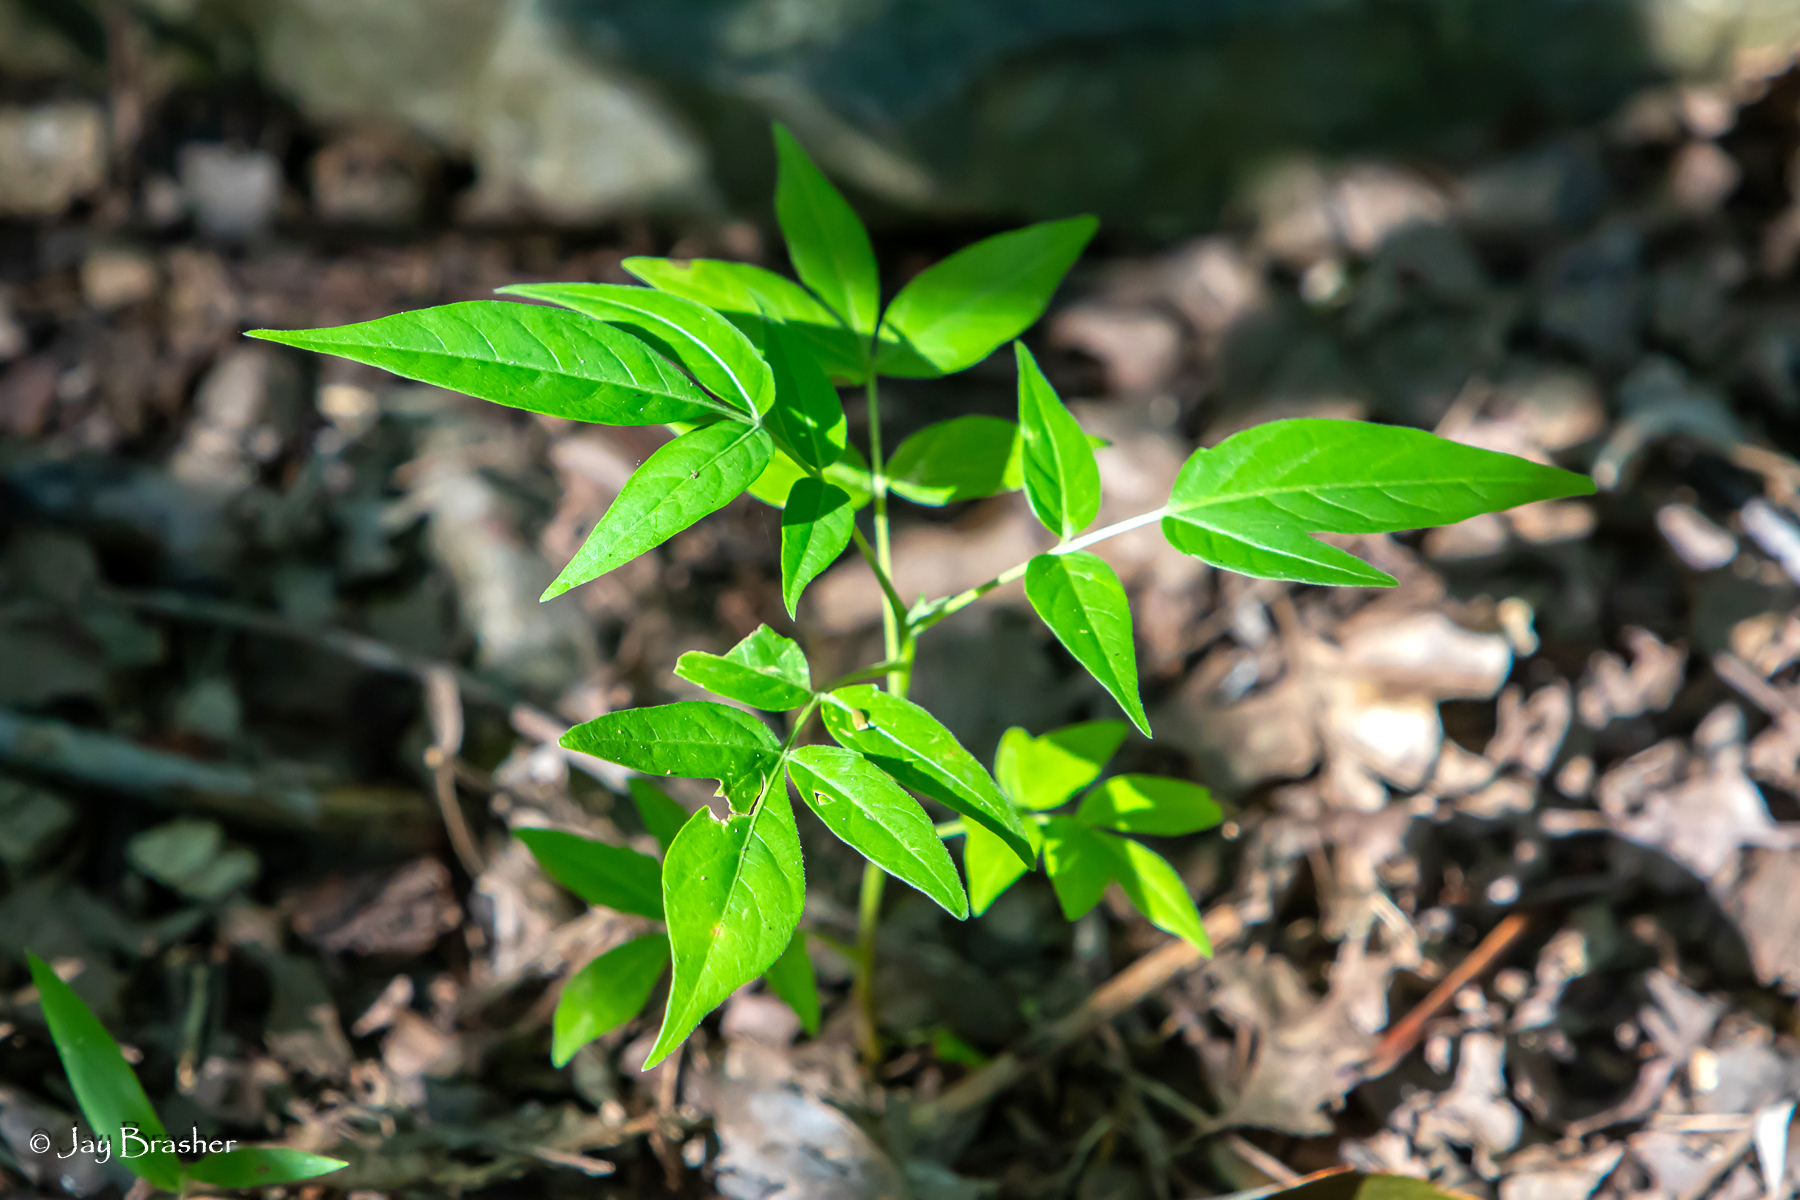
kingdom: Plantae
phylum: Tracheophyta
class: Magnoliopsida
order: Sapindales
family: Simaroubaceae
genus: Ailanthus
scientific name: Ailanthus altissima
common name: Tree-of-heaven
